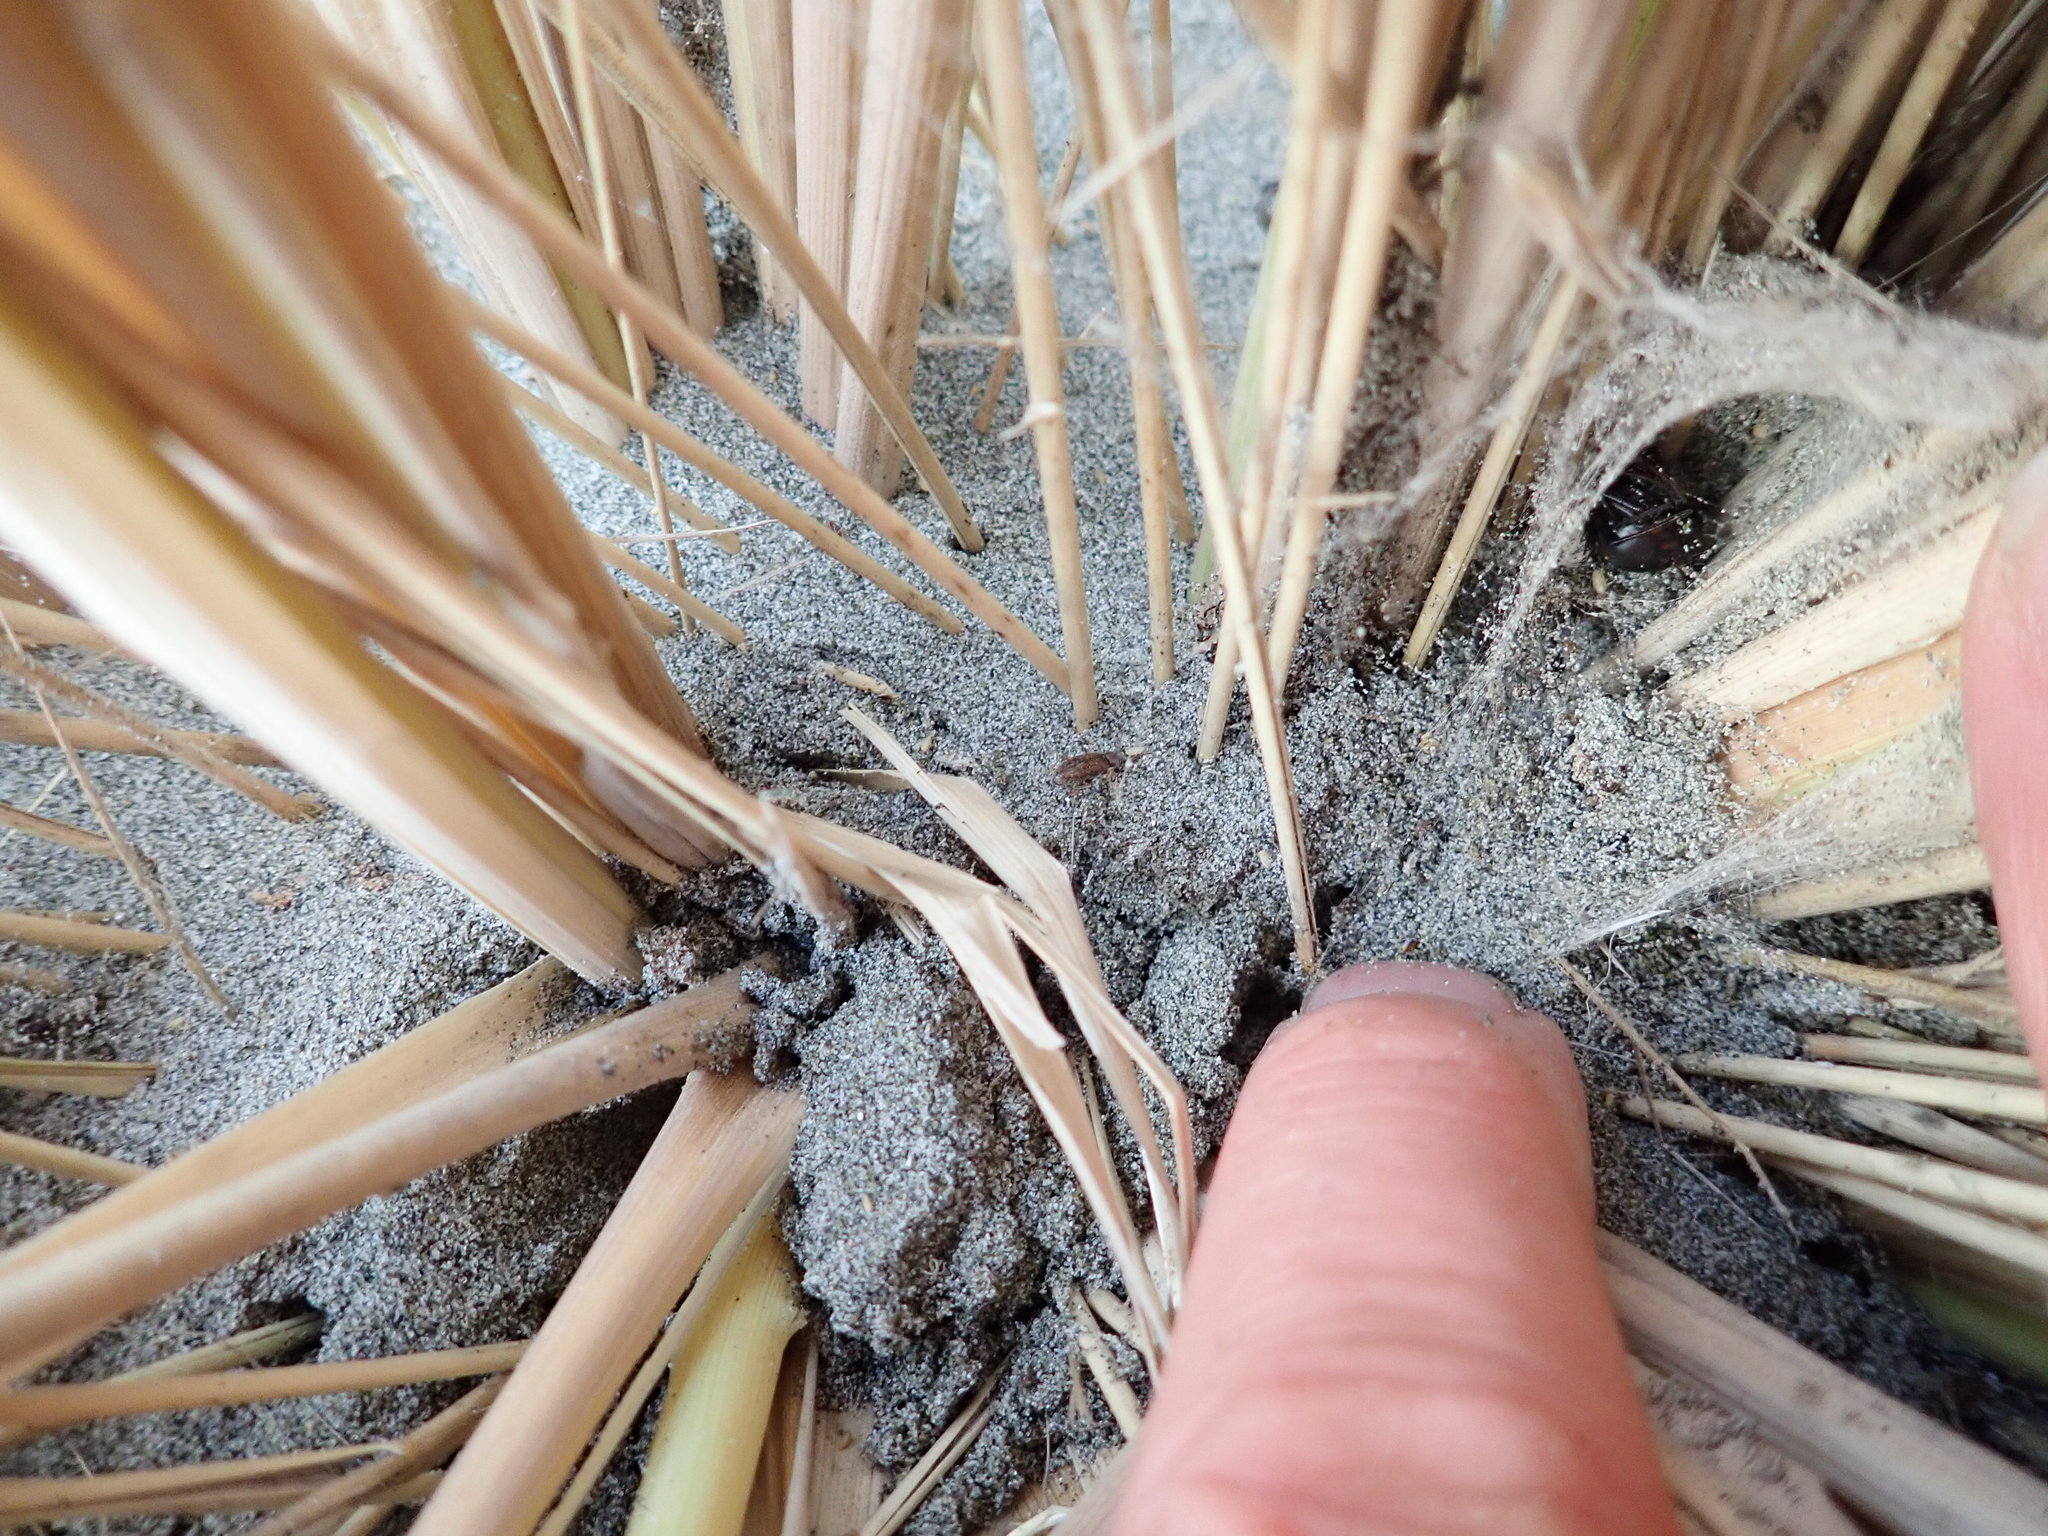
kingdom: Animalia
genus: Lagrioda
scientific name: Lagrioda brounii
